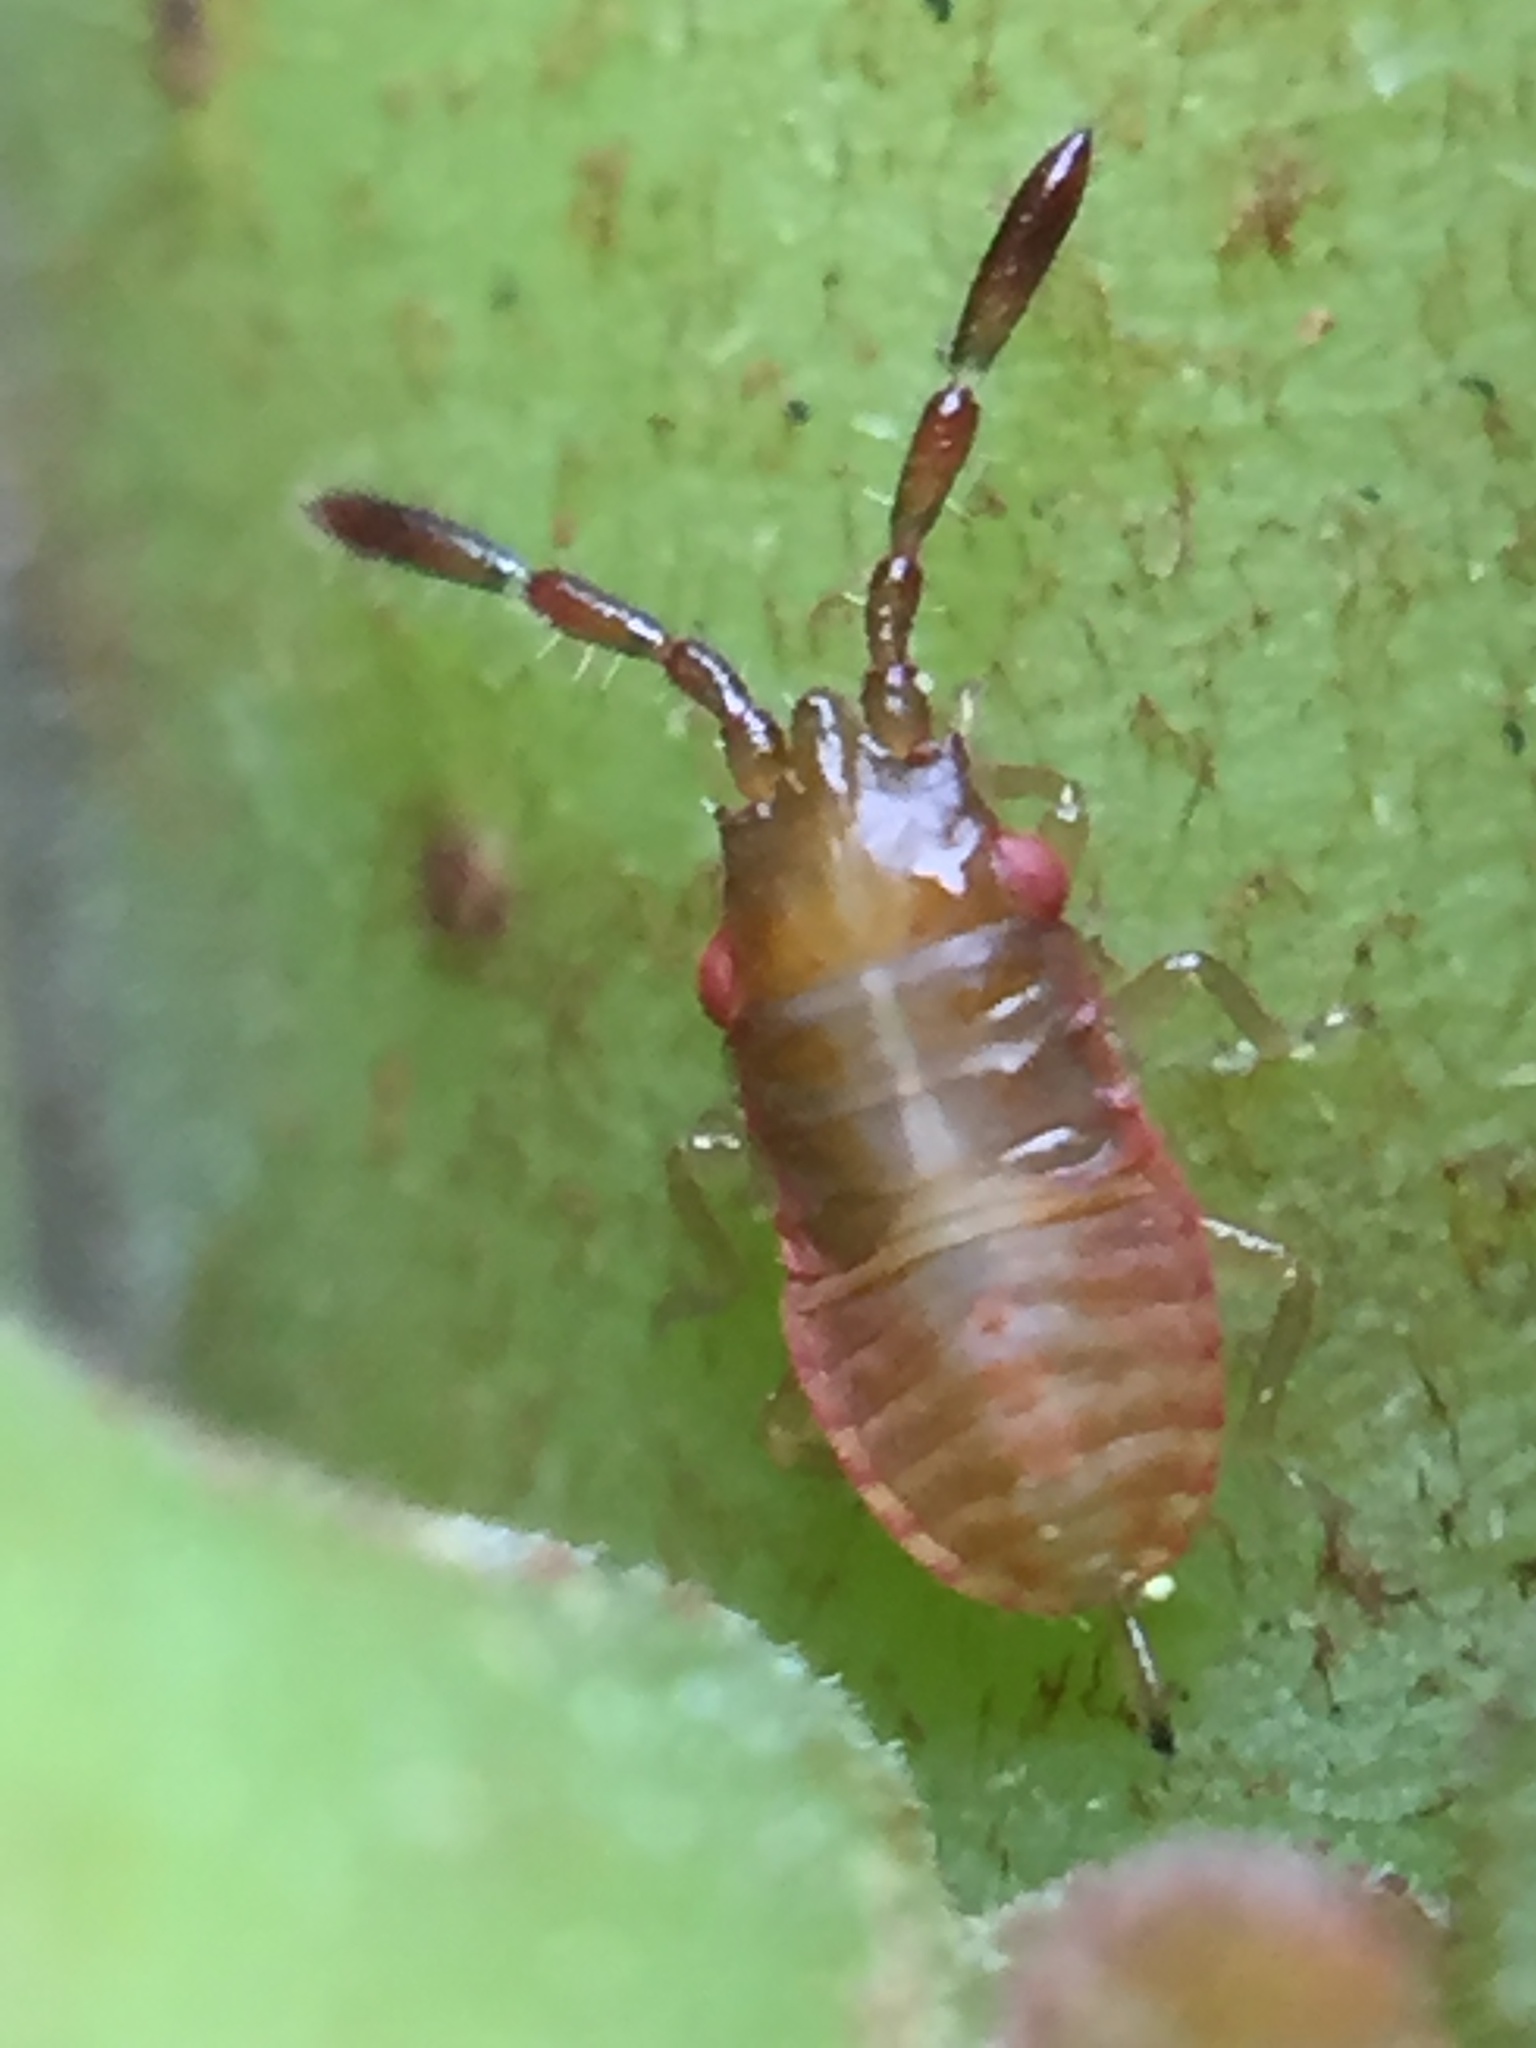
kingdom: Animalia
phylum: Arthropoda
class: Insecta
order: Hemiptera
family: Meschiidae
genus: Meschia
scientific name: Meschia barrowensis
